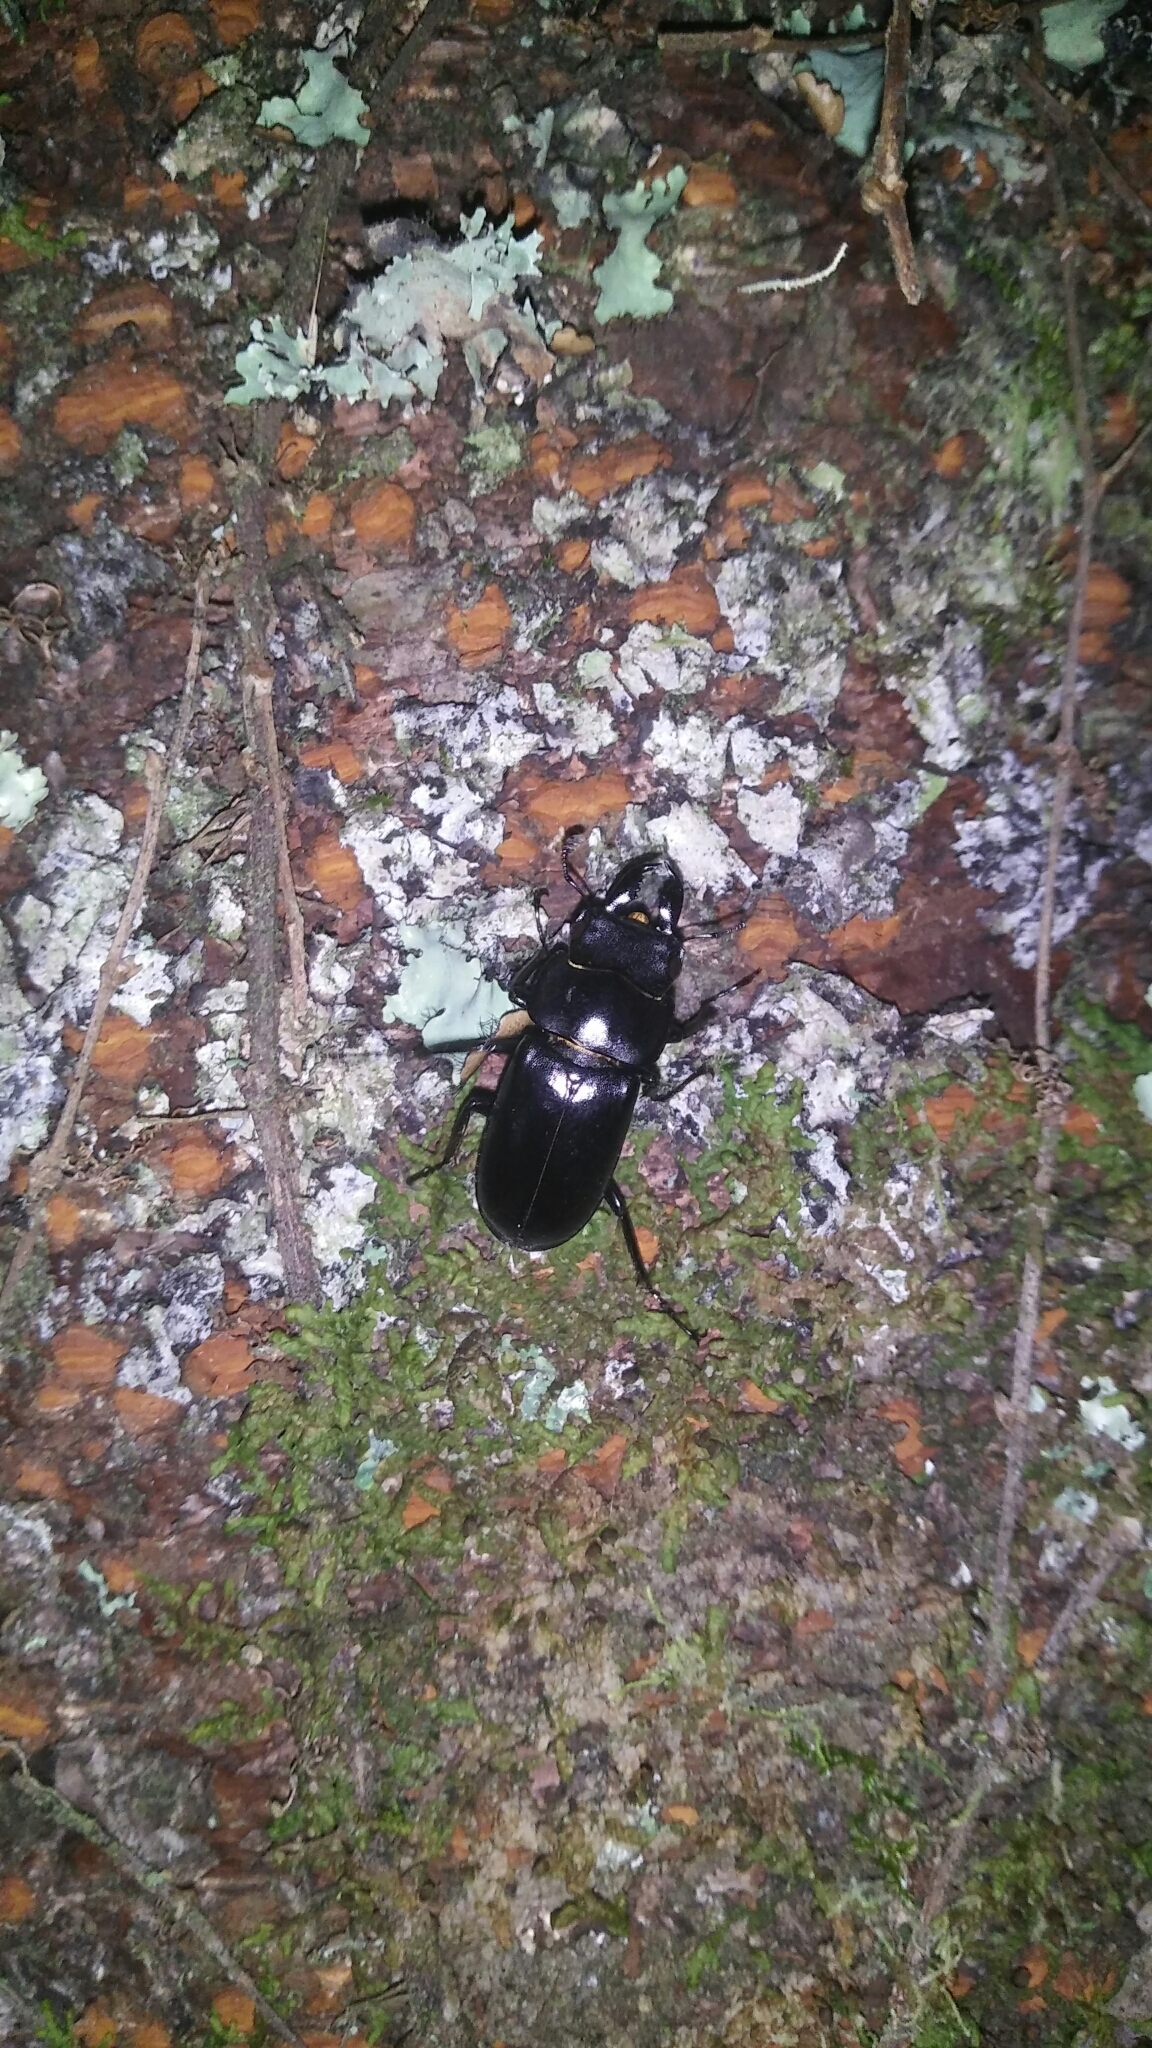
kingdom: Animalia
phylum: Arthropoda
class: Insecta
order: Coleoptera
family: Lucanidae
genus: Falcicornis
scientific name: Falcicornis tenuecostatus
